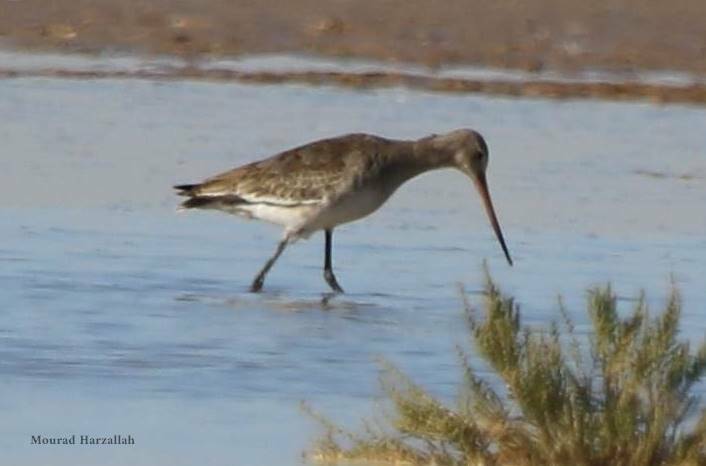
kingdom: Animalia
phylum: Chordata
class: Aves
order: Charadriiformes
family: Scolopacidae
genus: Limosa
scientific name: Limosa limosa
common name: Black-tailed godwit
